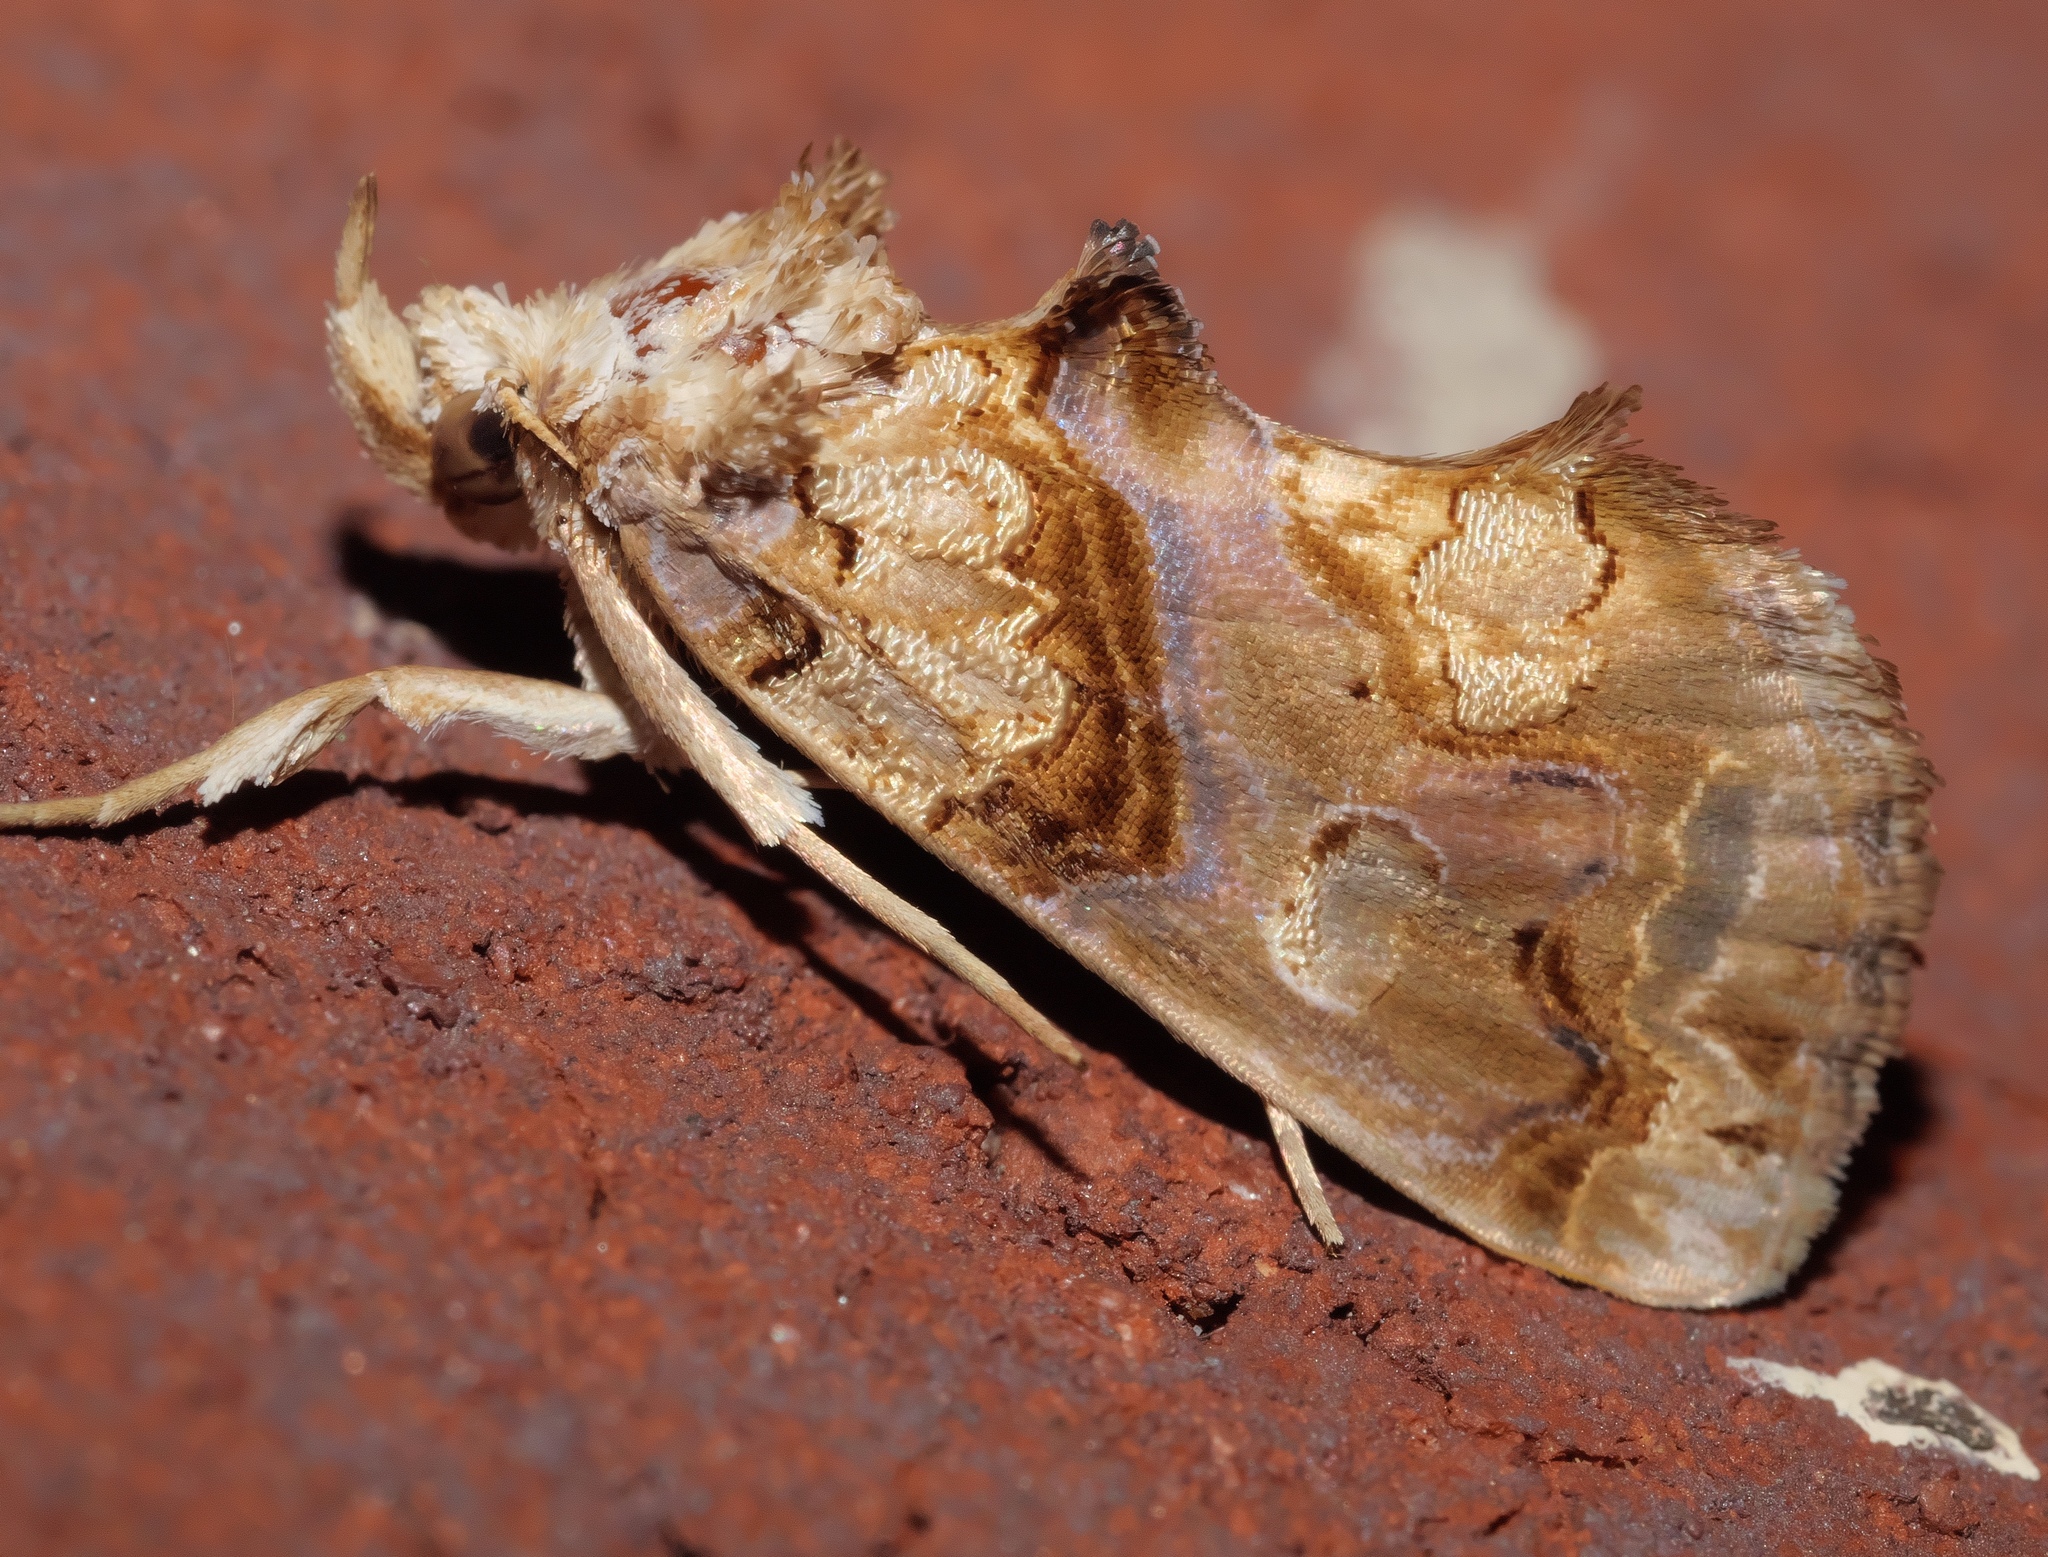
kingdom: Animalia
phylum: Arthropoda
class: Insecta
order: Lepidoptera
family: Erebidae
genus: Plusiodonta
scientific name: Plusiodonta compressipalpis
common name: Moonseed moth
